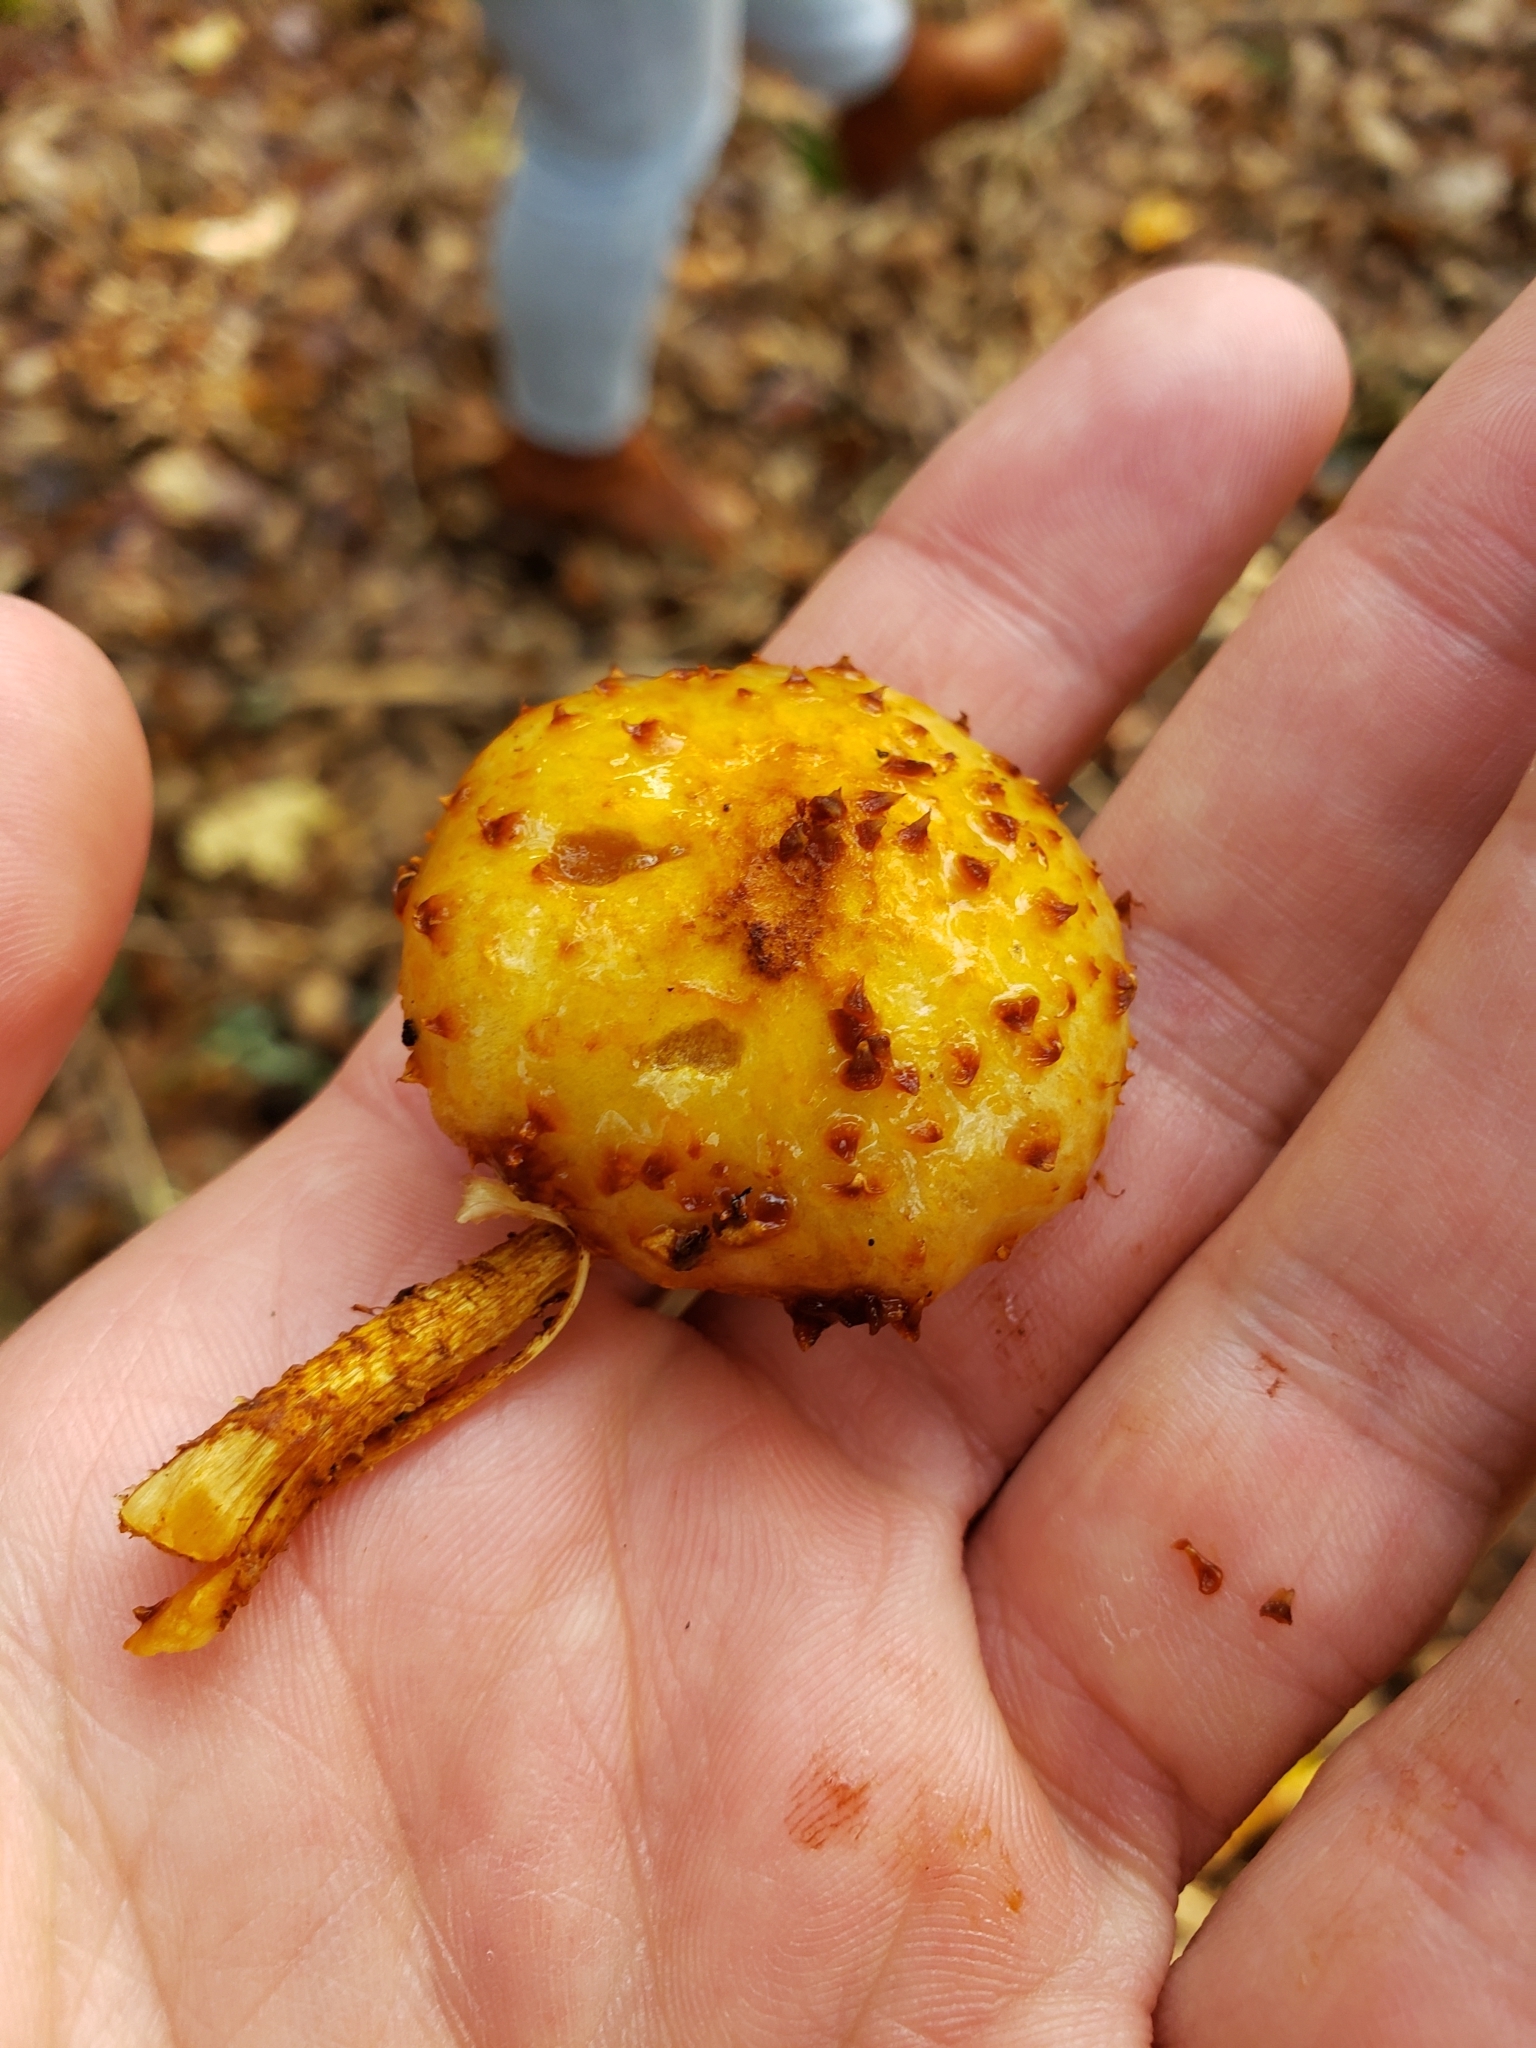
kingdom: Fungi
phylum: Basidiomycota
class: Agaricomycetes
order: Agaricales
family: Strophariaceae
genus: Pholiota
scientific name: Pholiota aurivella
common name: Golden scalycap
